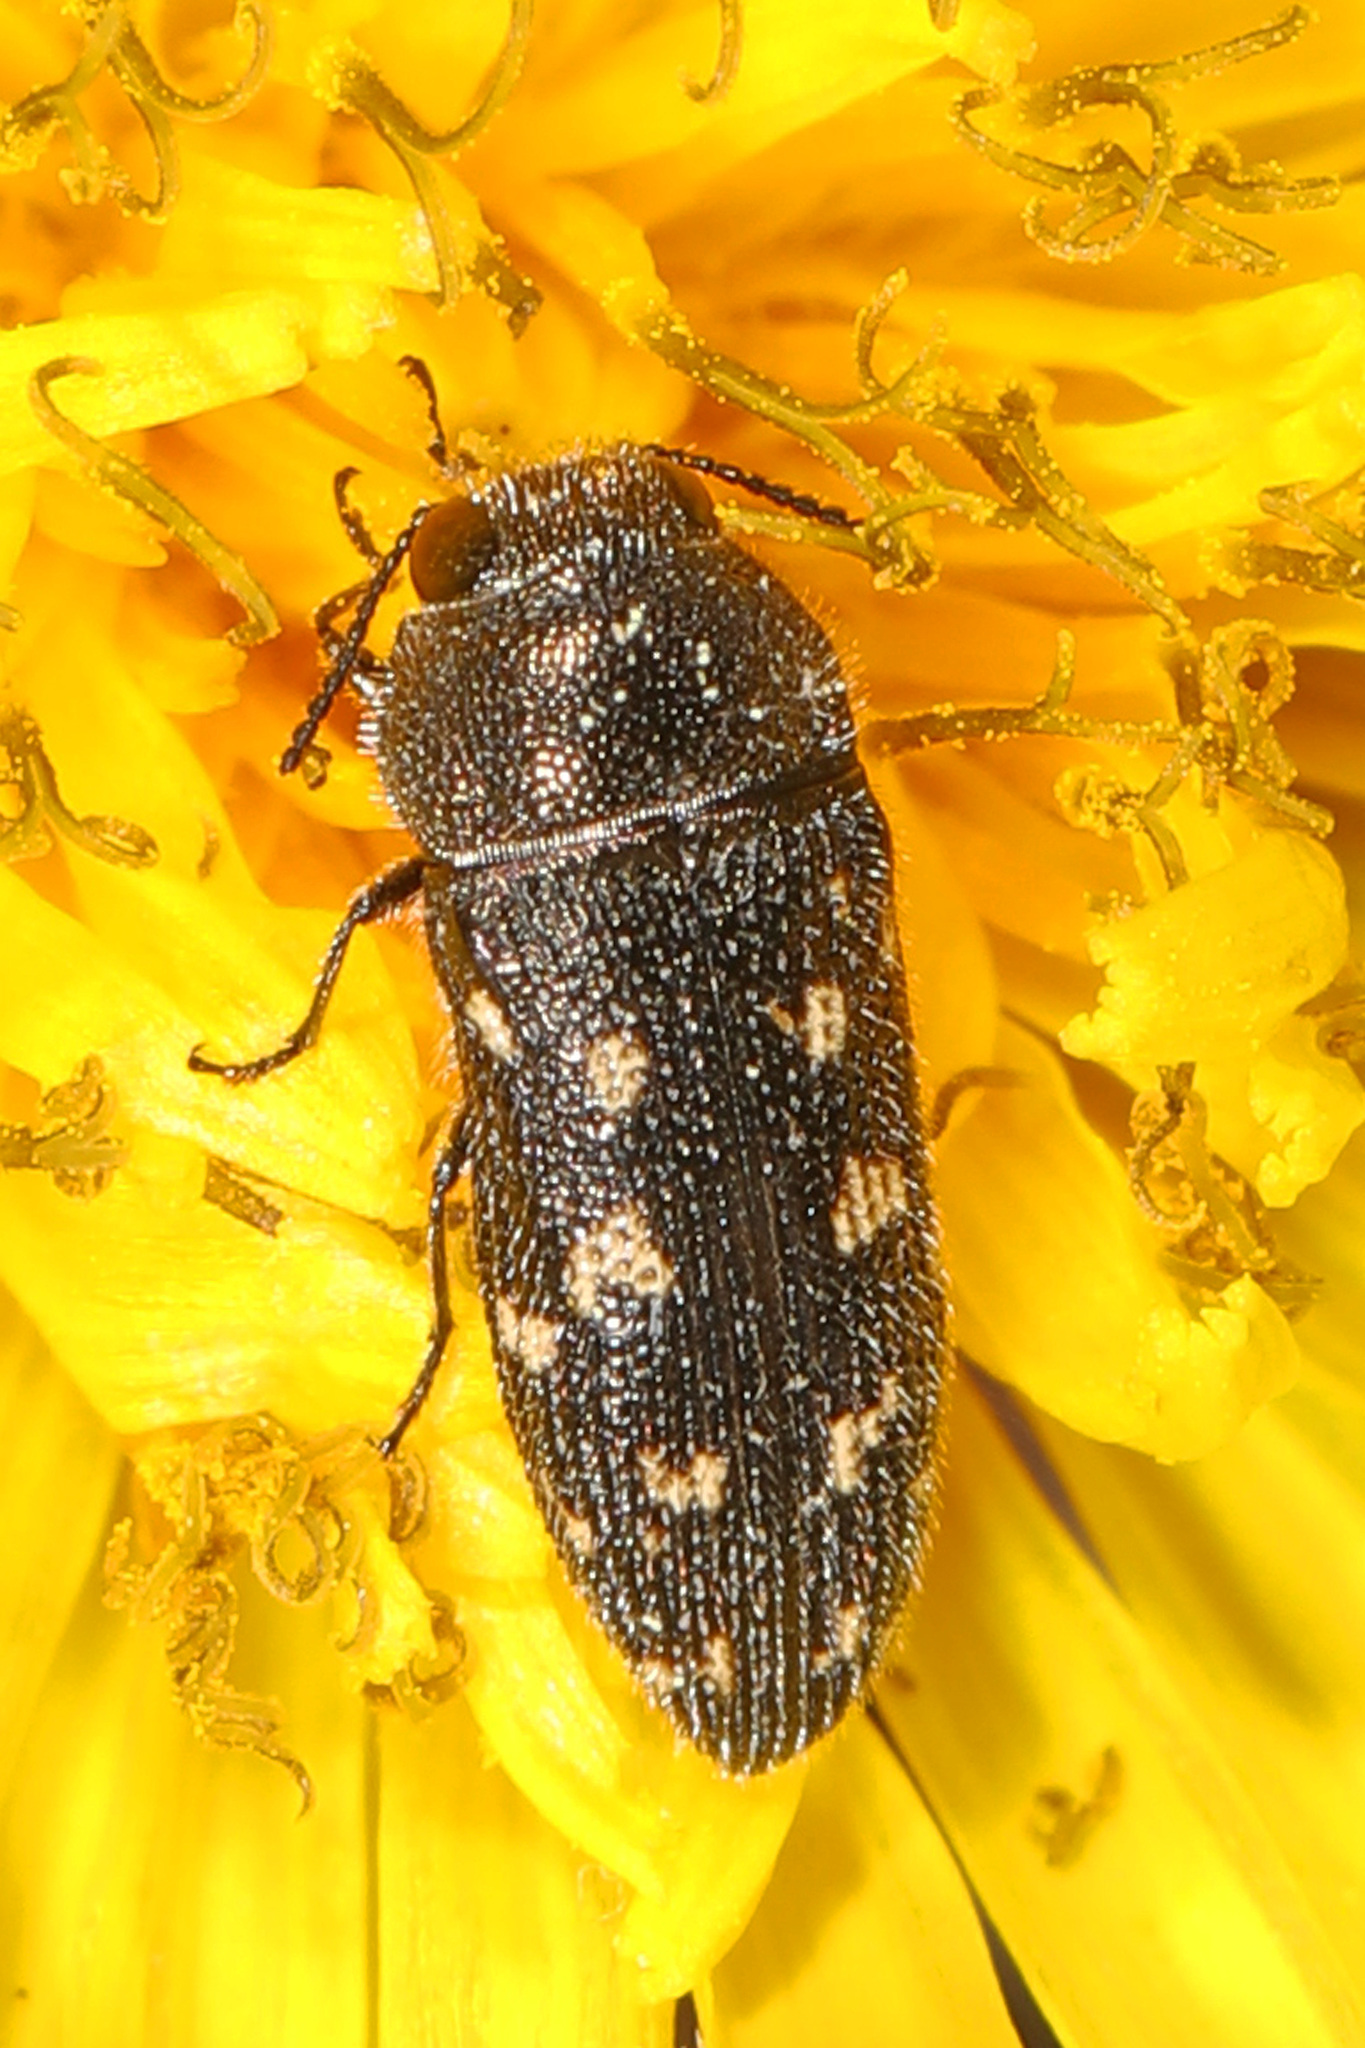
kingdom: Animalia
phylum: Arthropoda
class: Insecta
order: Coleoptera
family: Buprestidae
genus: Acmaeodera
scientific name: Acmaeodera tubulus
